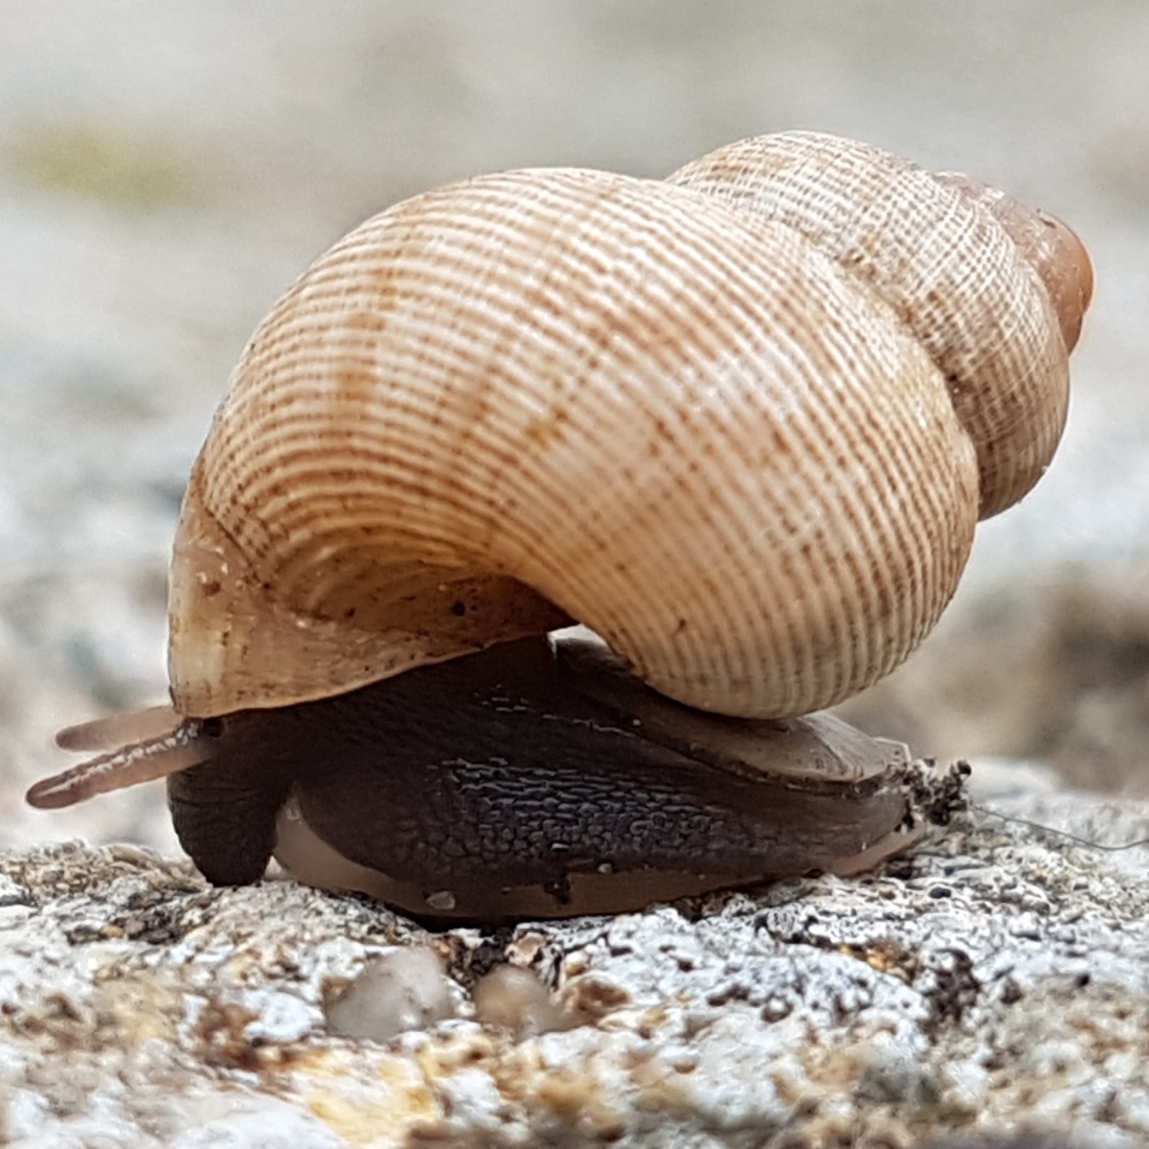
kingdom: Animalia
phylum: Mollusca
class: Gastropoda
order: Littorinimorpha
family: Pomatiidae
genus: Pomatias
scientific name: Pomatias elegans
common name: Red-mouthed snail
